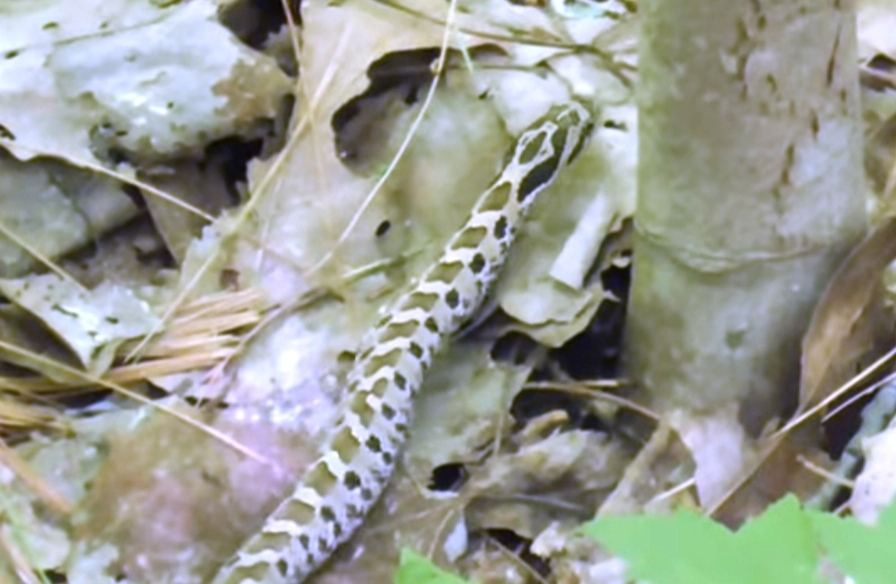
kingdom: Animalia
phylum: Chordata
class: Squamata
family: Colubridae
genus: Heterodon
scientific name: Heterodon platirhinos
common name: Eastern hognose snake
